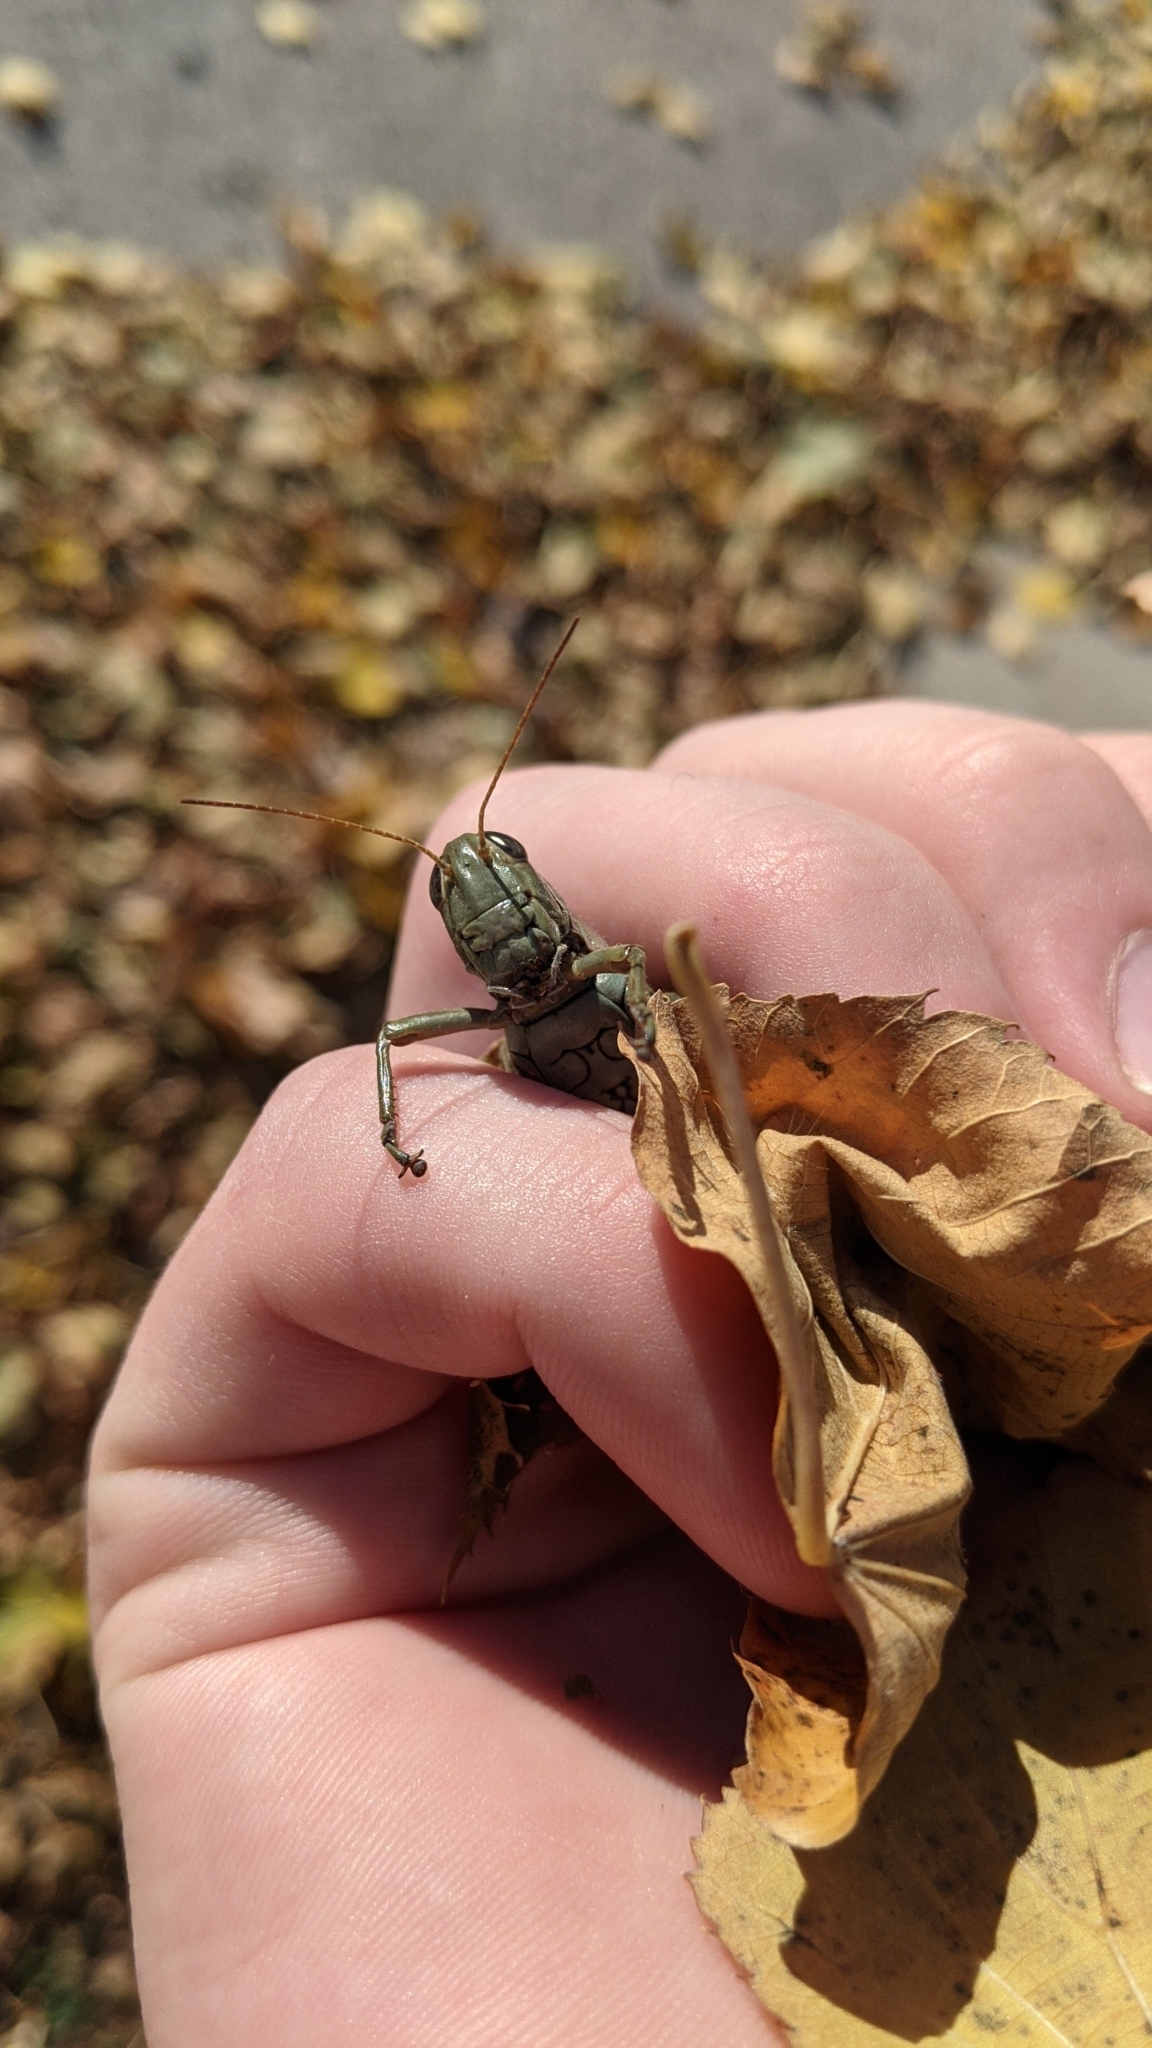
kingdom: Animalia
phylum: Arthropoda
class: Insecta
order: Orthoptera
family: Acrididae
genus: Melanoplus
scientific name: Melanoplus differentialis
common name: Differential grasshopper
